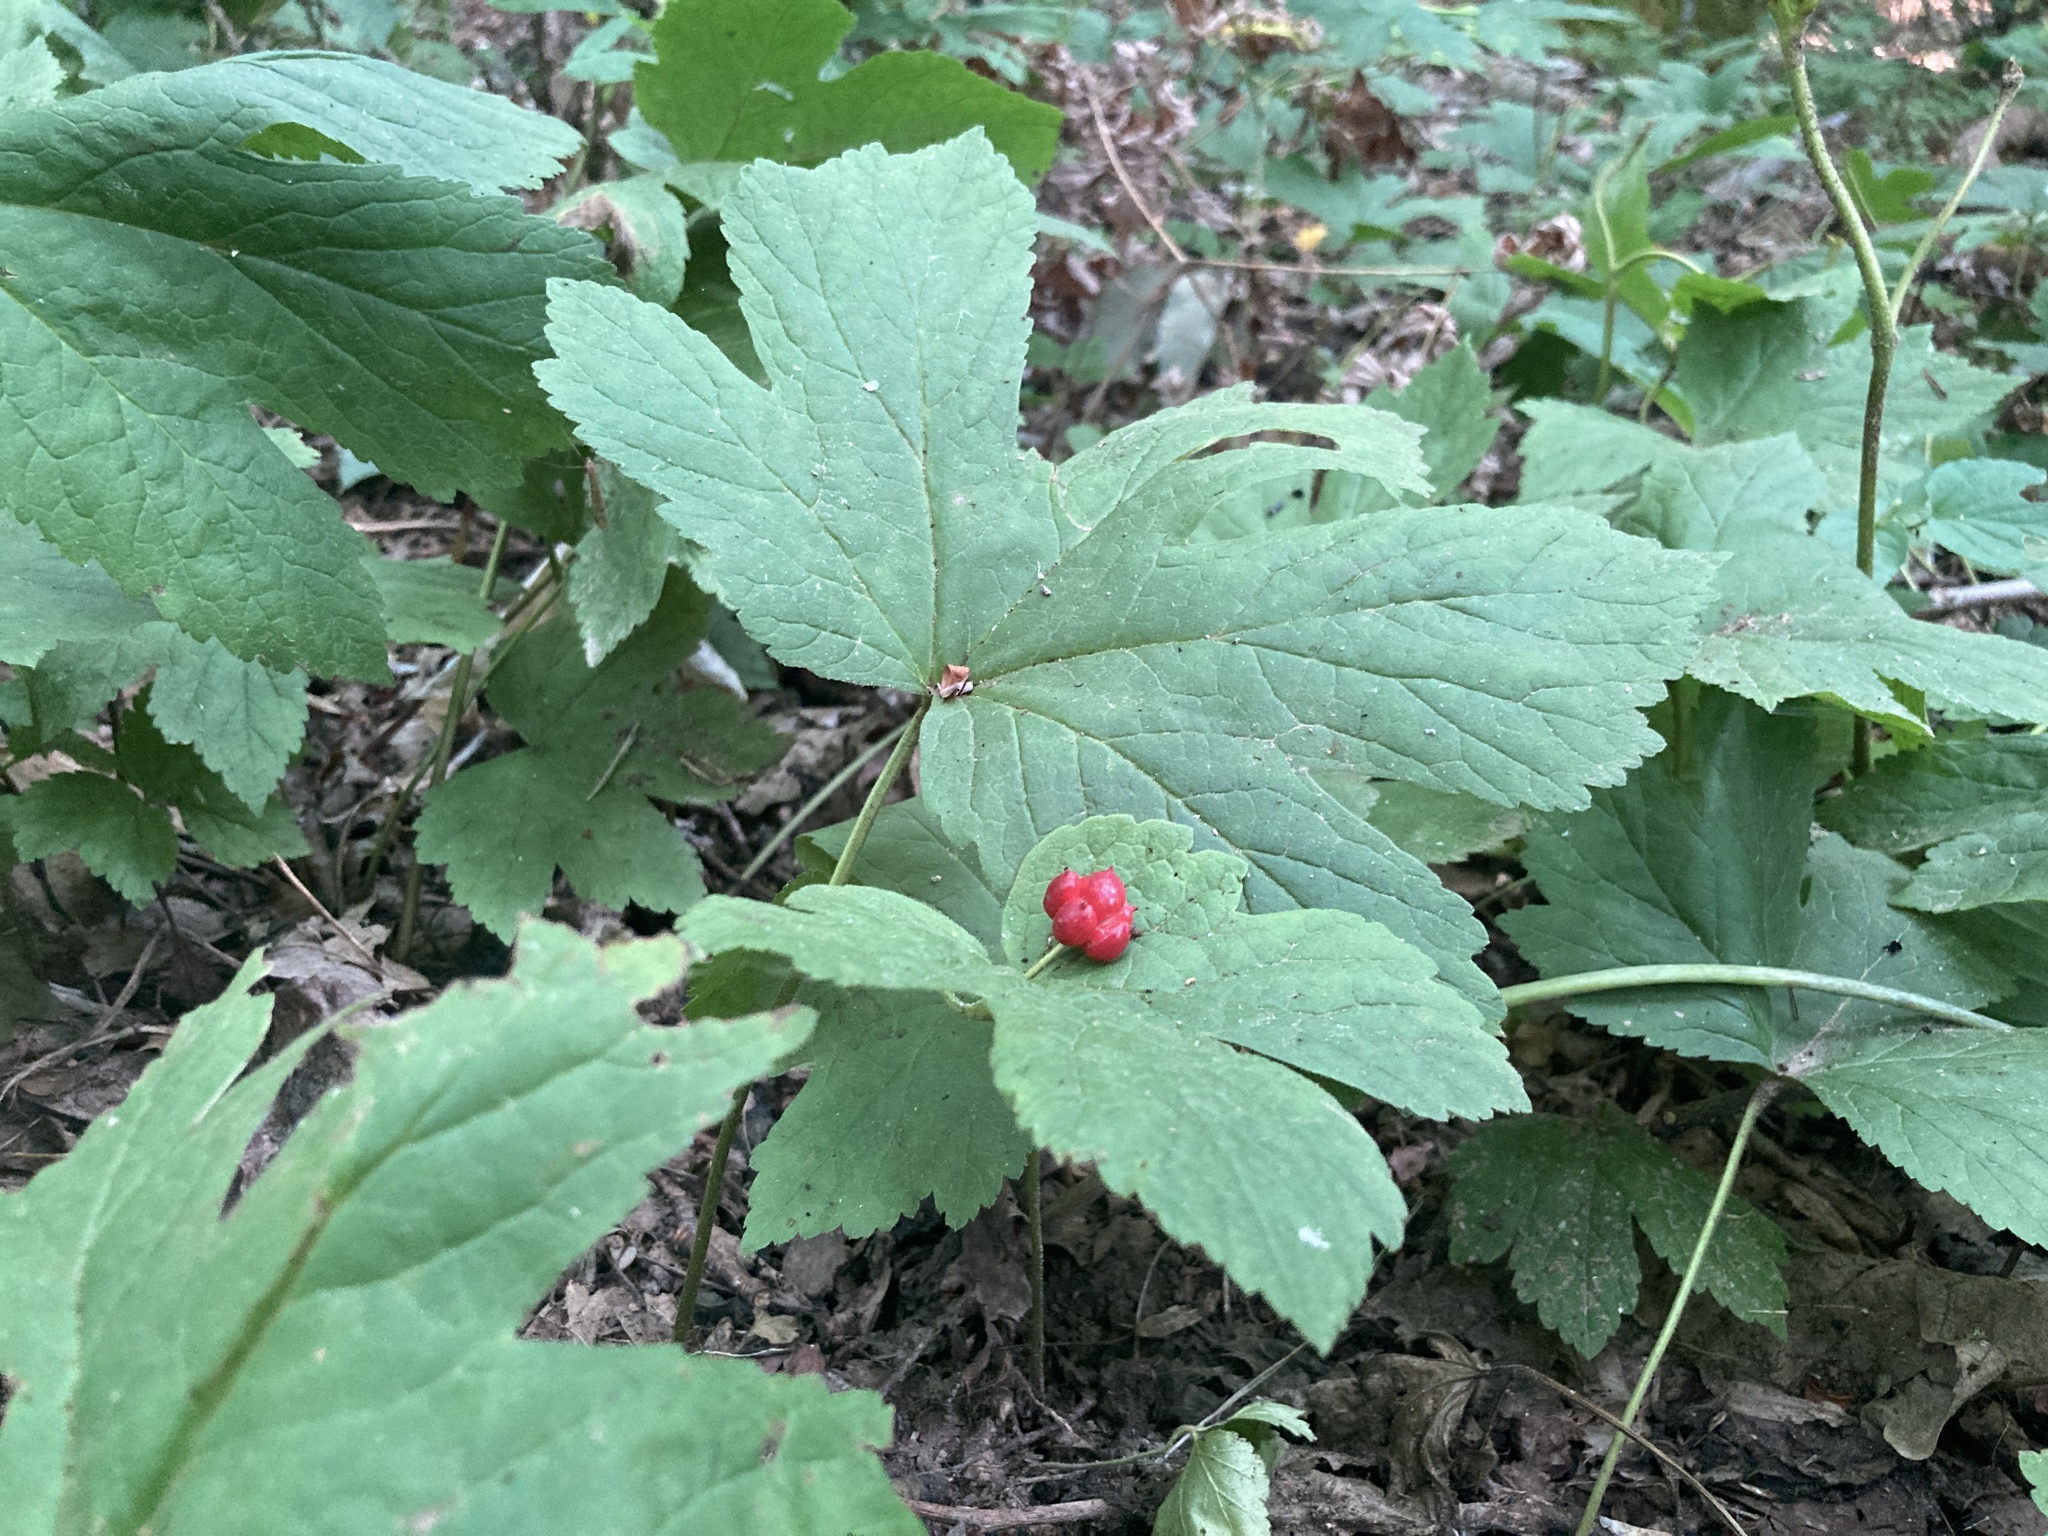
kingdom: Plantae
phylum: Tracheophyta
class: Magnoliopsida
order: Ranunculales
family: Ranunculaceae
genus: Hydrastis
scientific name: Hydrastis canadensis
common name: Goldenseal
